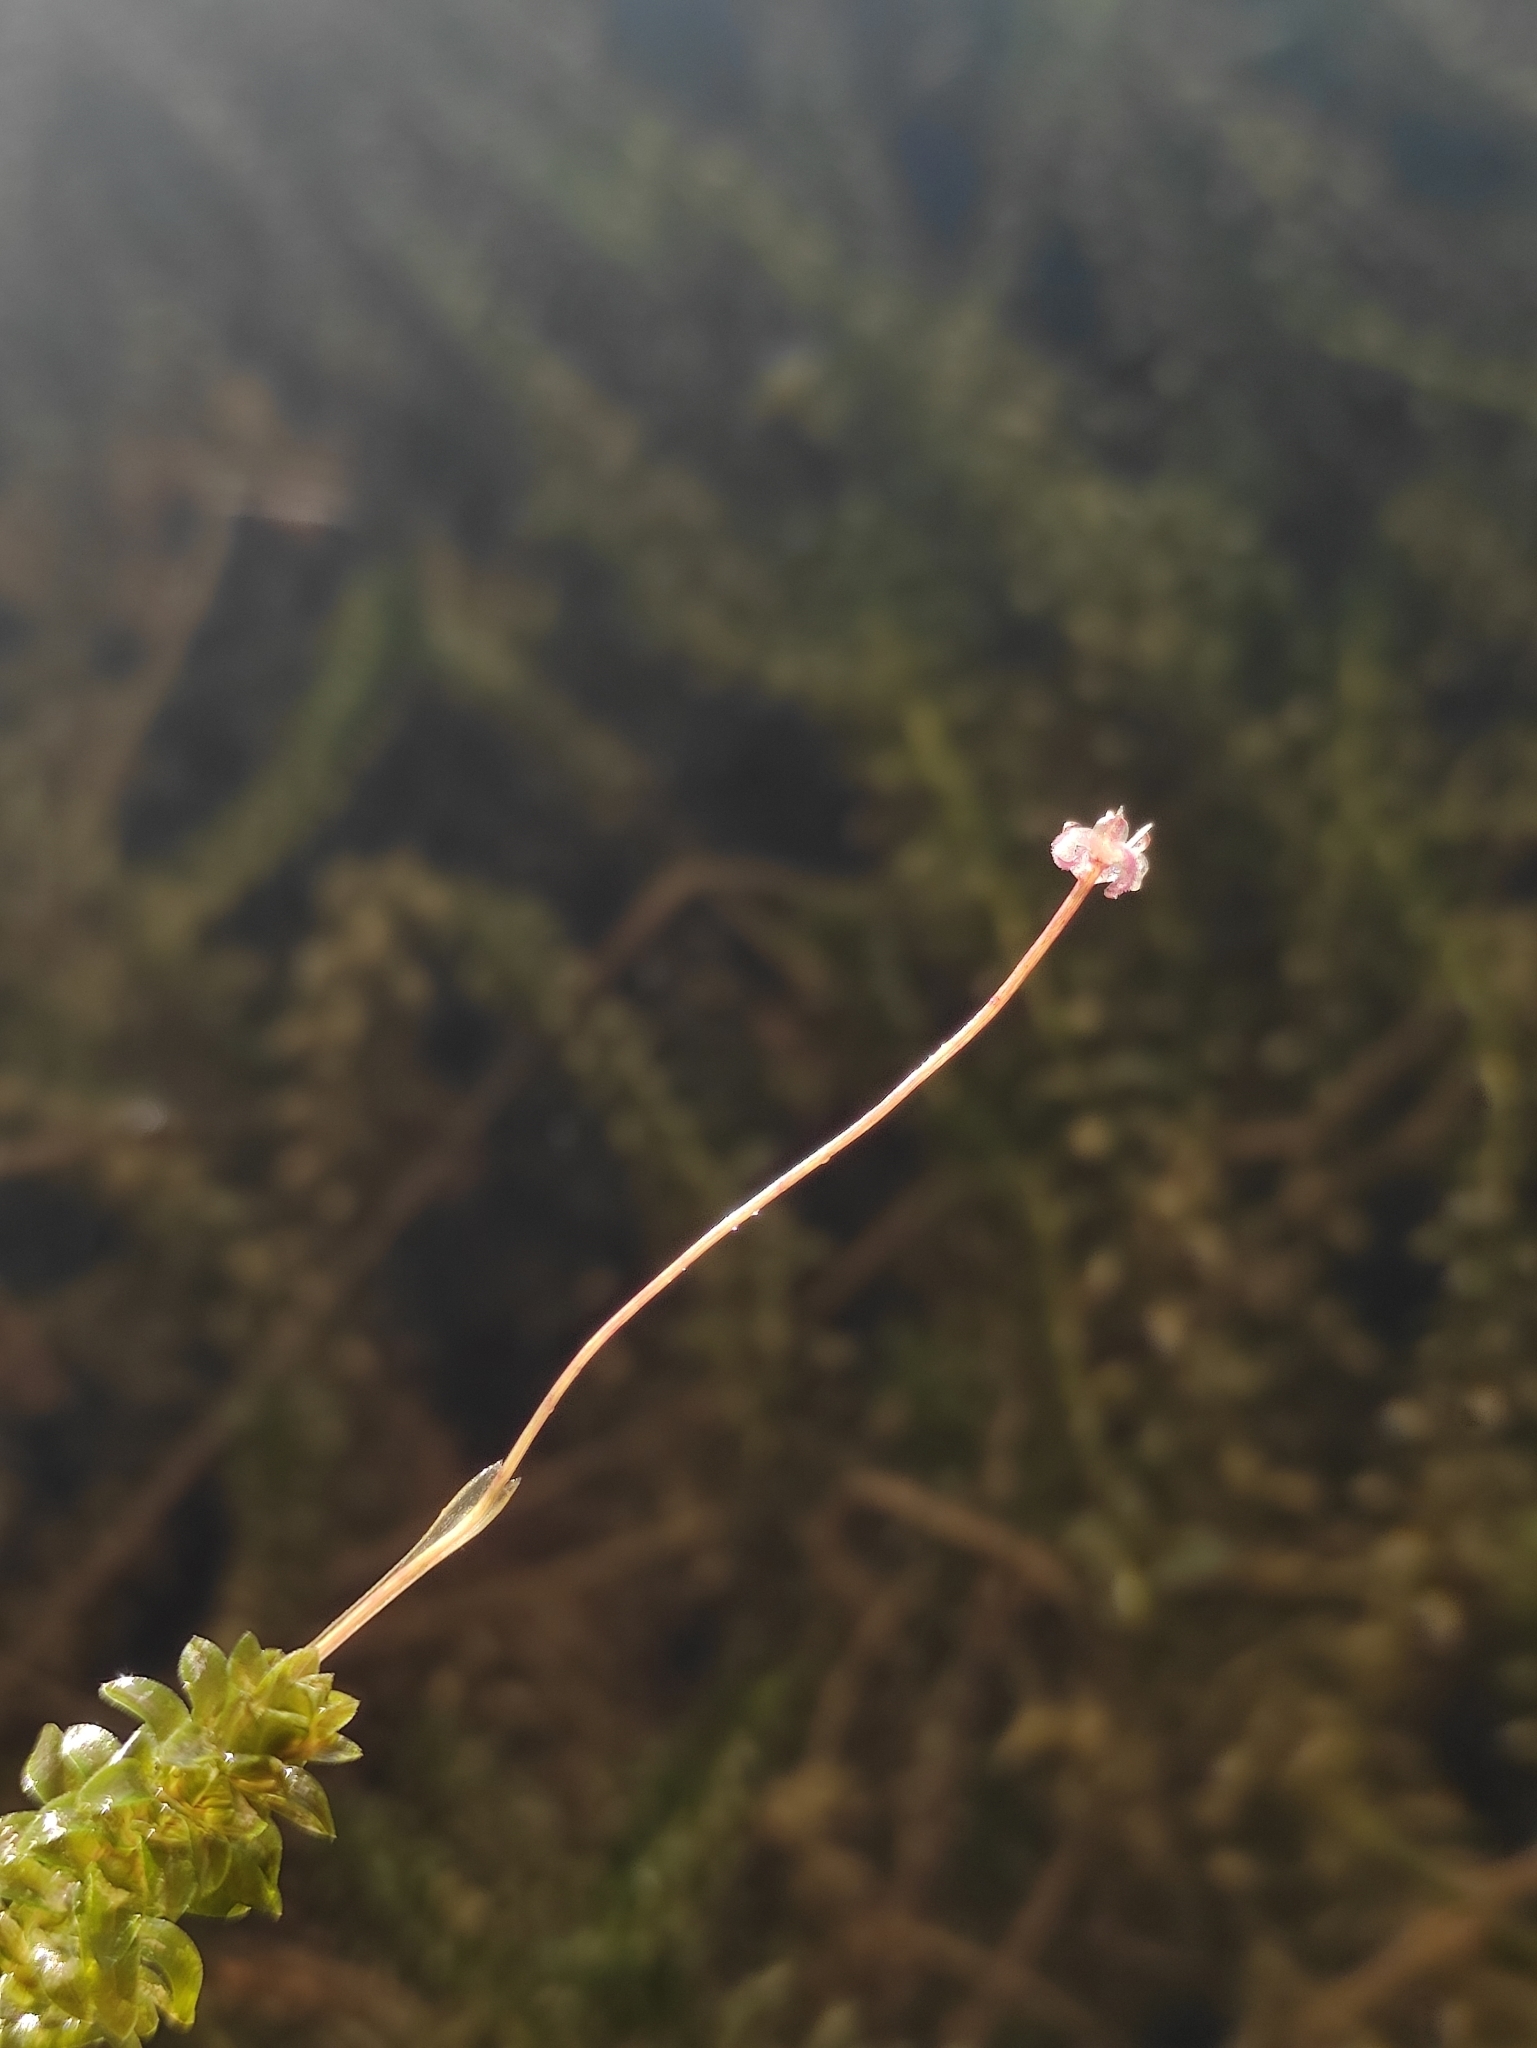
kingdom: Plantae
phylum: Tracheophyta
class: Liliopsida
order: Alismatales
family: Hydrocharitaceae
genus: Elodea
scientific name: Elodea canadensis
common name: Canadian waterweed
